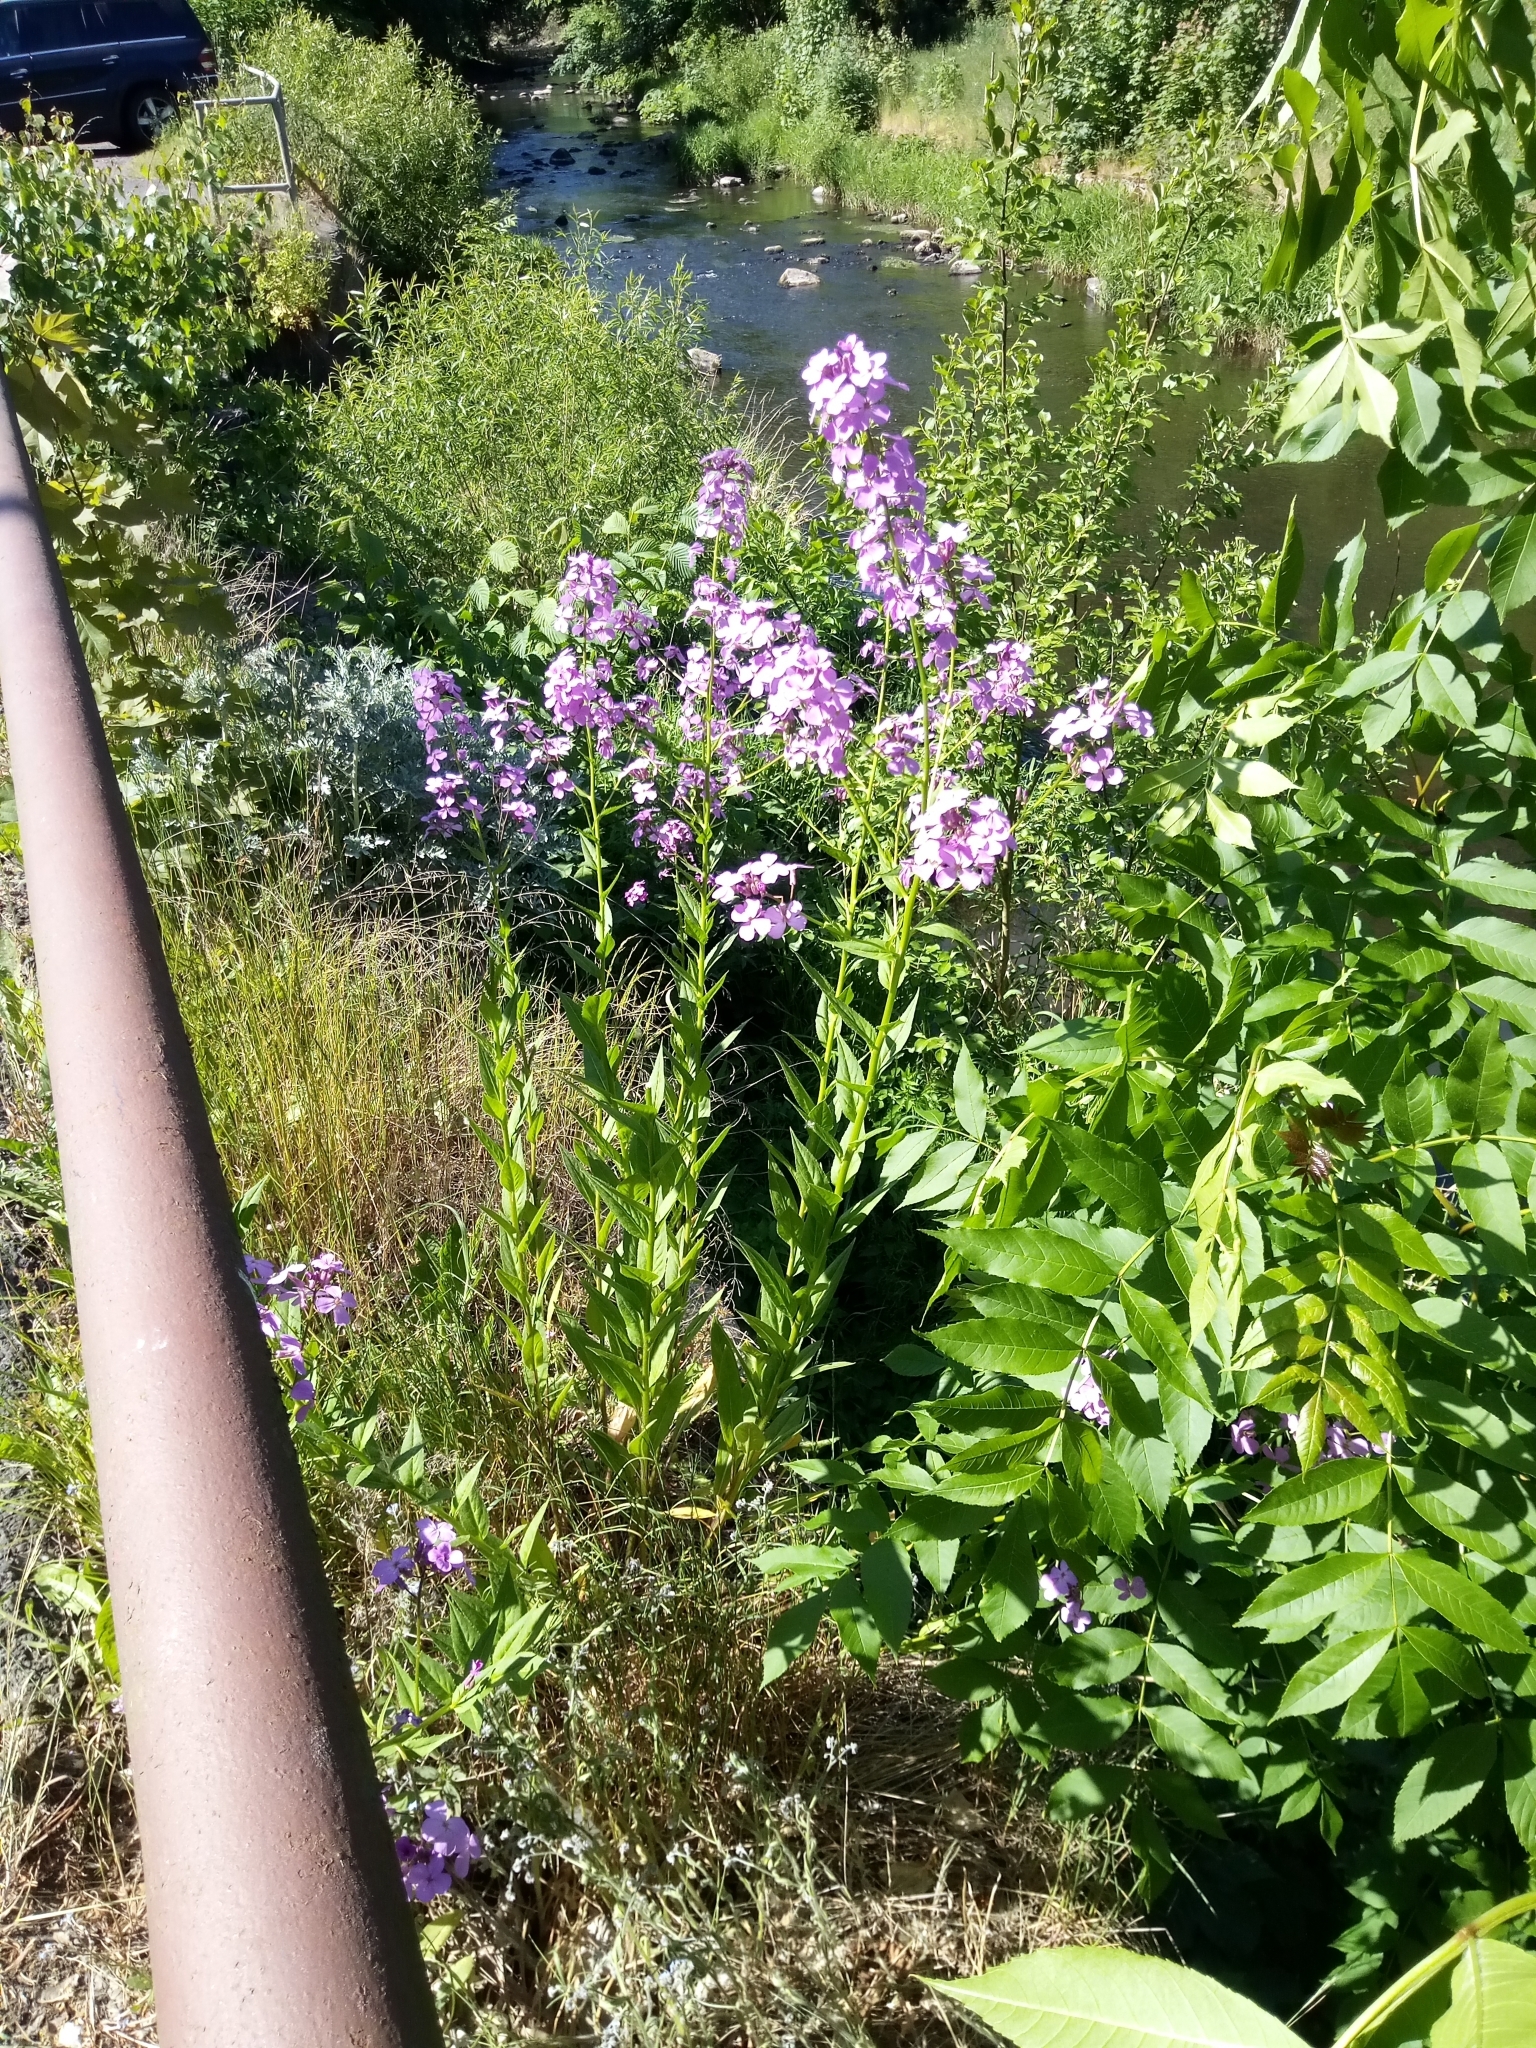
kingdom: Plantae
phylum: Tracheophyta
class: Magnoliopsida
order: Brassicales
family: Brassicaceae
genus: Hesperis
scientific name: Hesperis matronalis
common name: Dame's-violet
